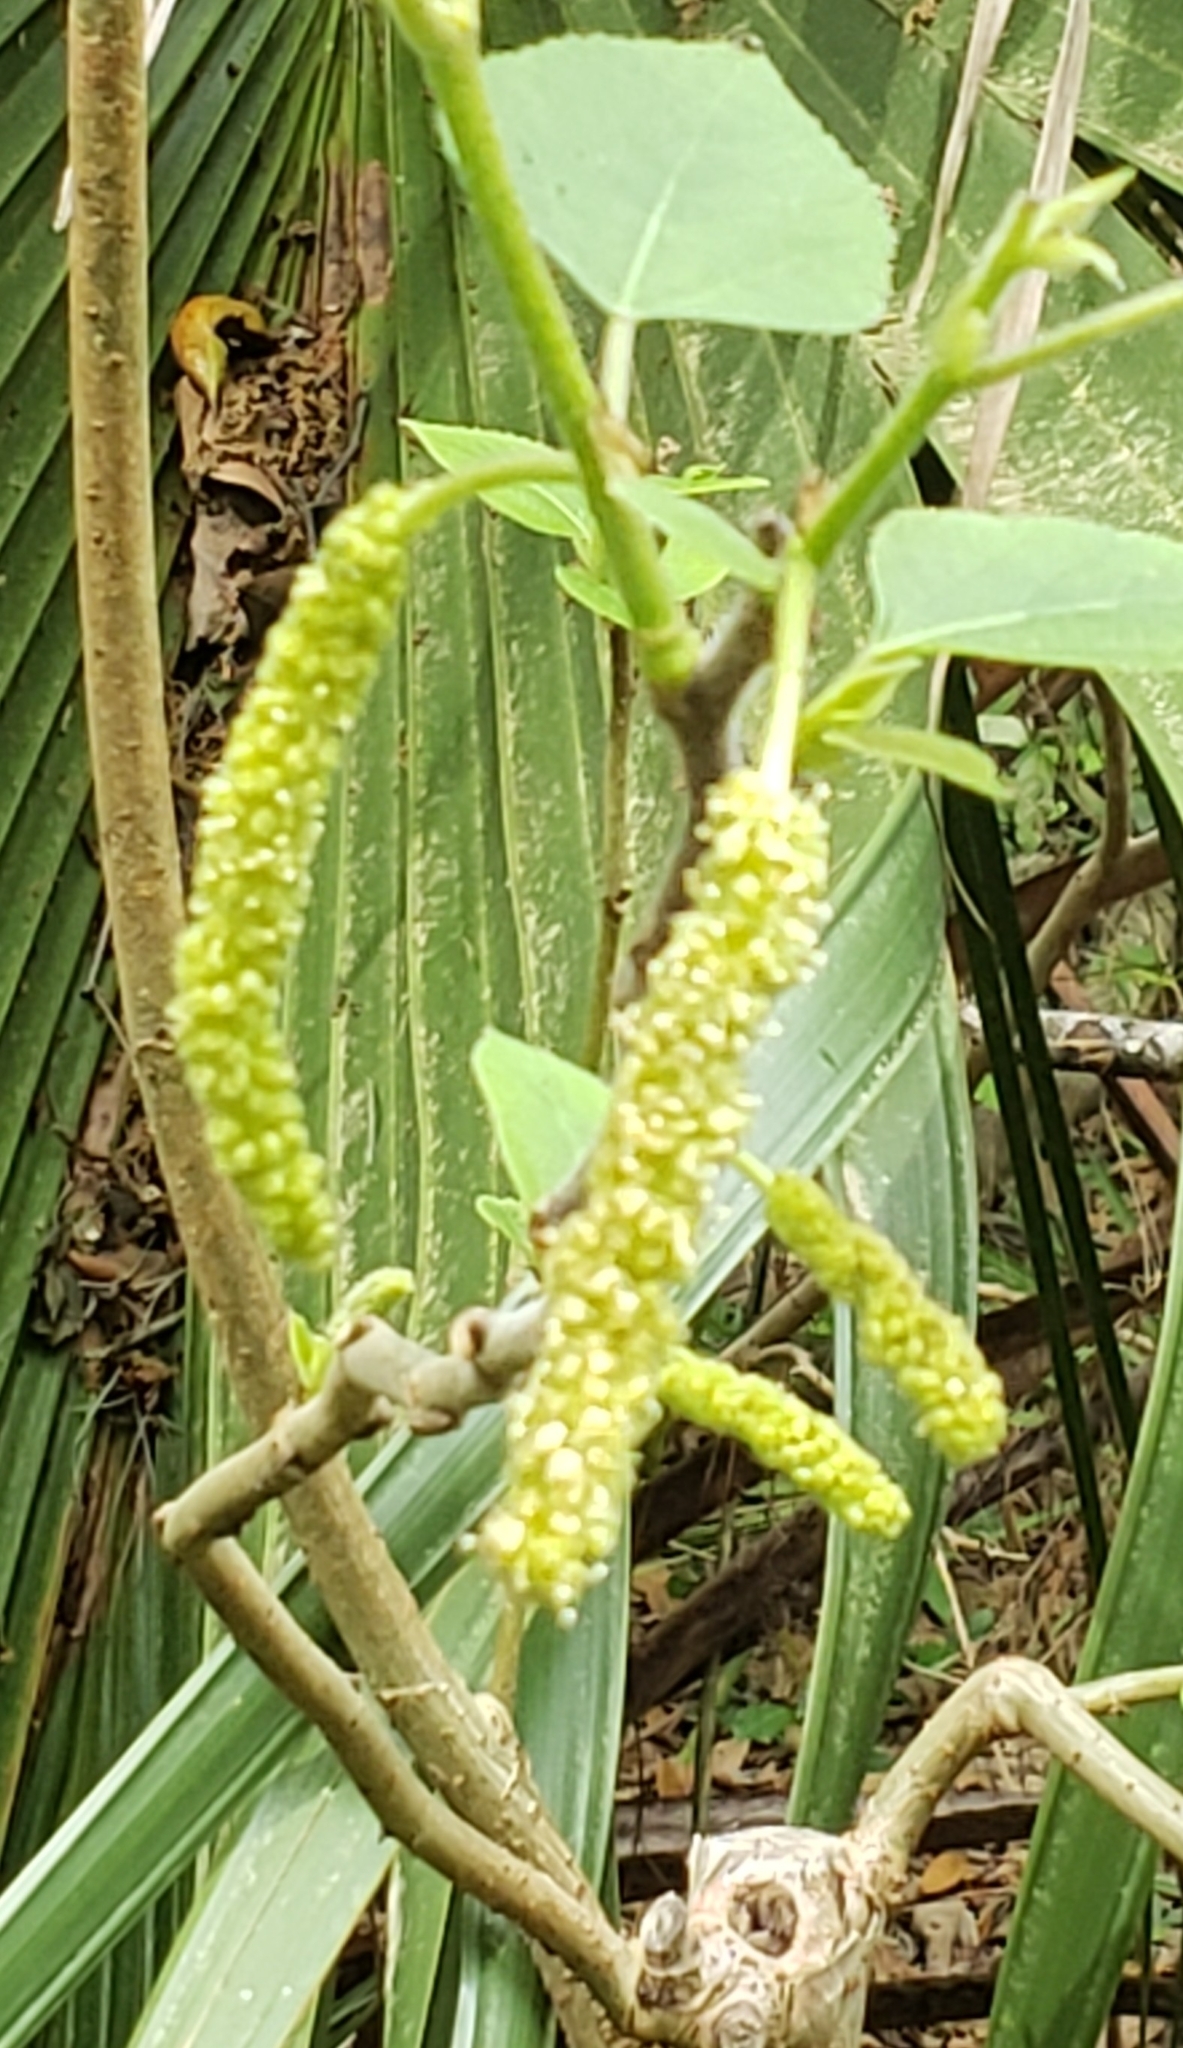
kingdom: Plantae
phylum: Tracheophyta
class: Magnoliopsida
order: Malpighiales
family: Euphorbiaceae
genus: Triadica
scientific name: Triadica sebifera
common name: Chinese tallow
